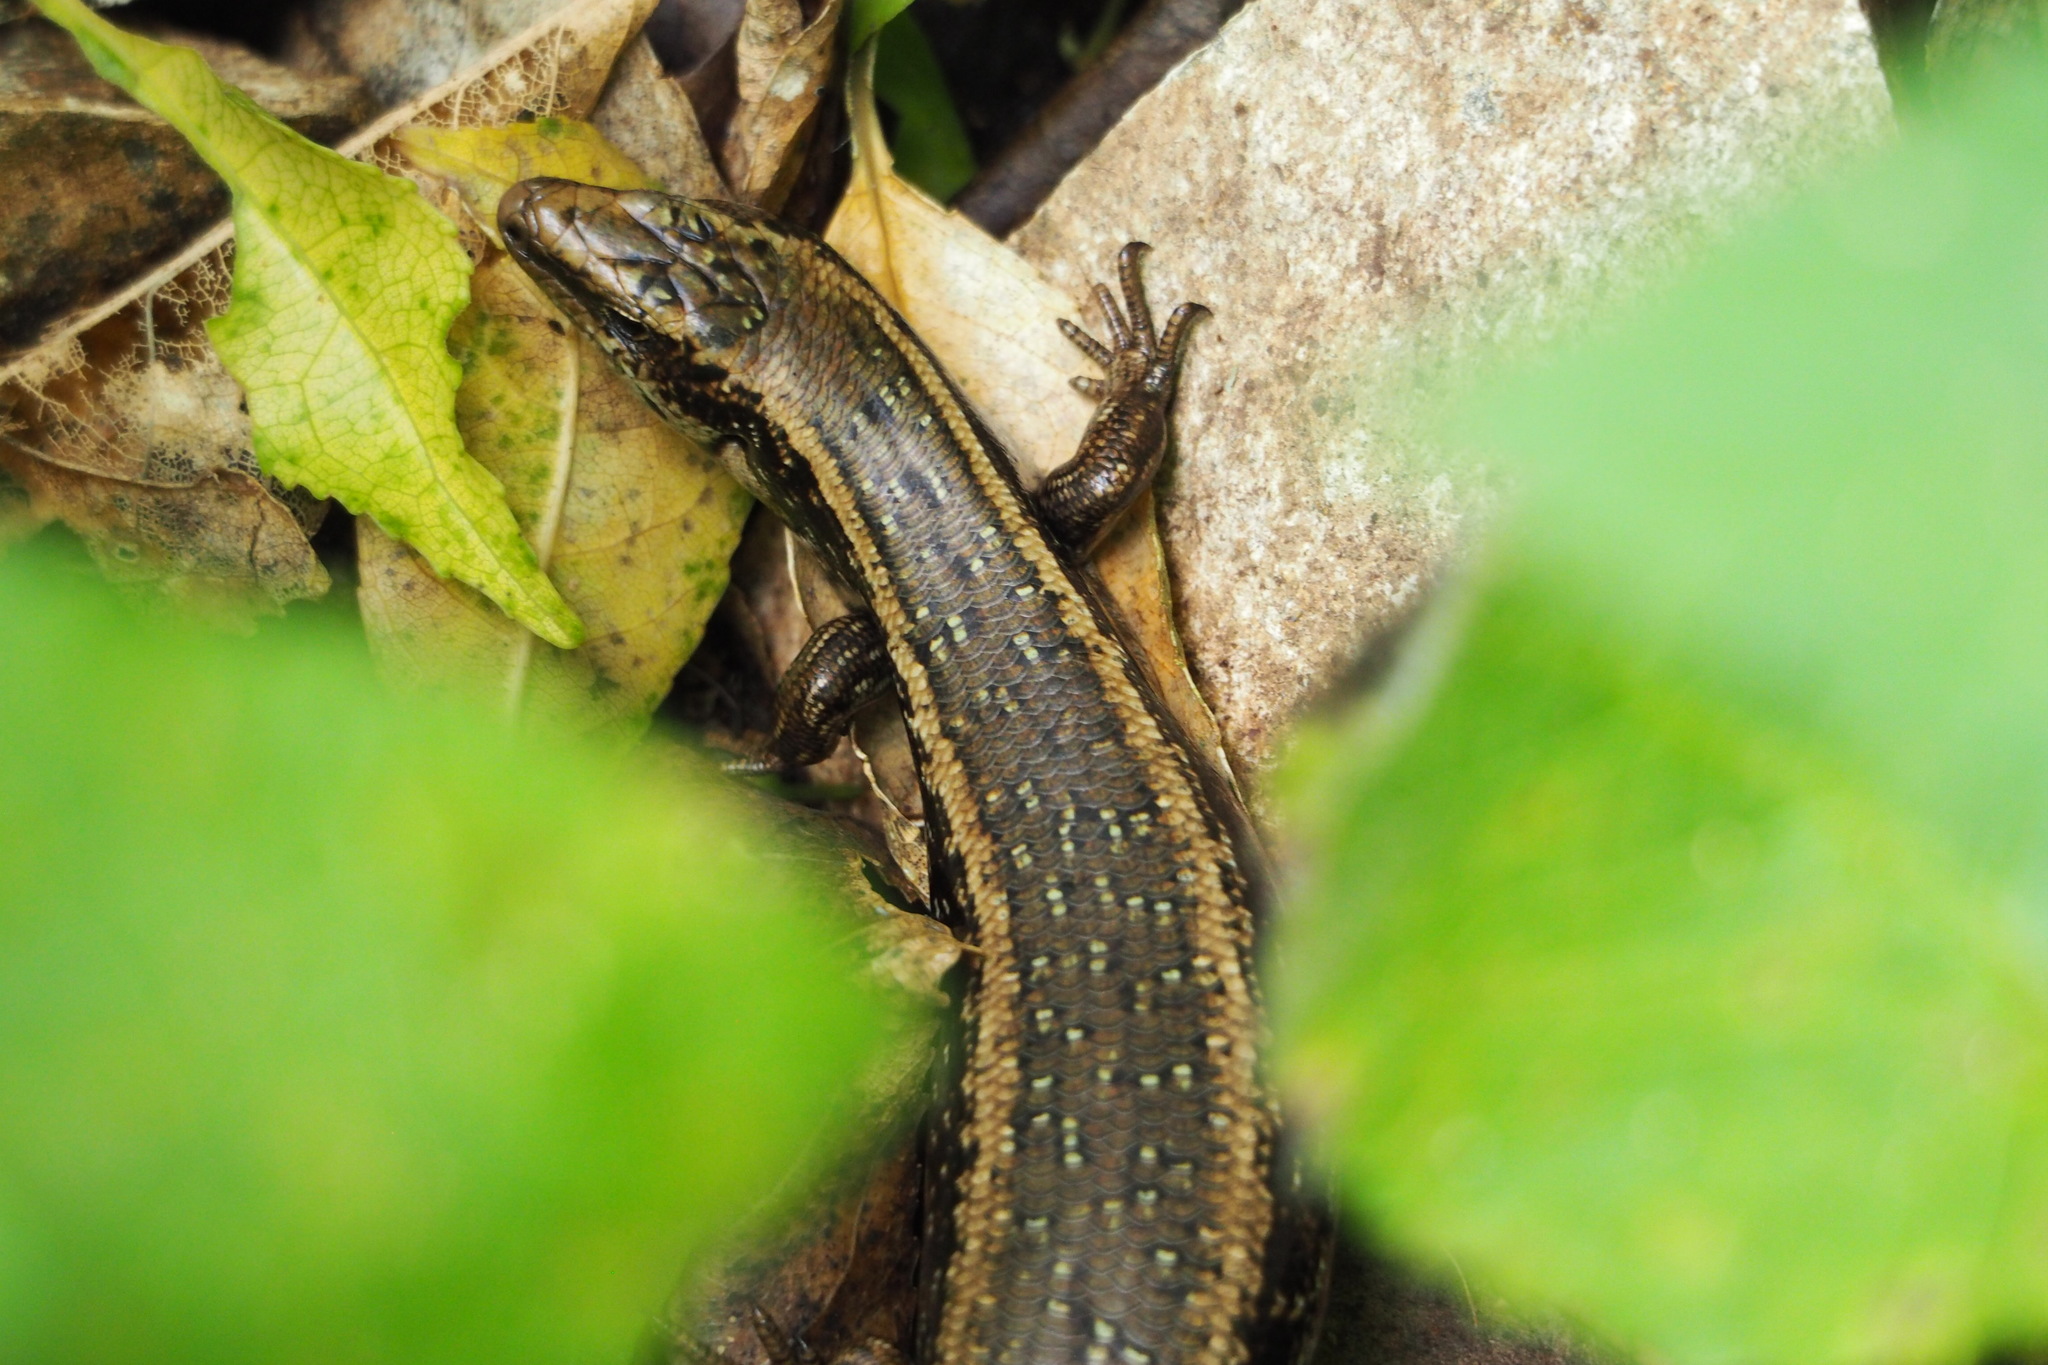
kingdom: Animalia
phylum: Chordata
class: Squamata
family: Scincidae
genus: Oligosoma
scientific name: Oligosoma kokowai
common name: Northern spotted skink
